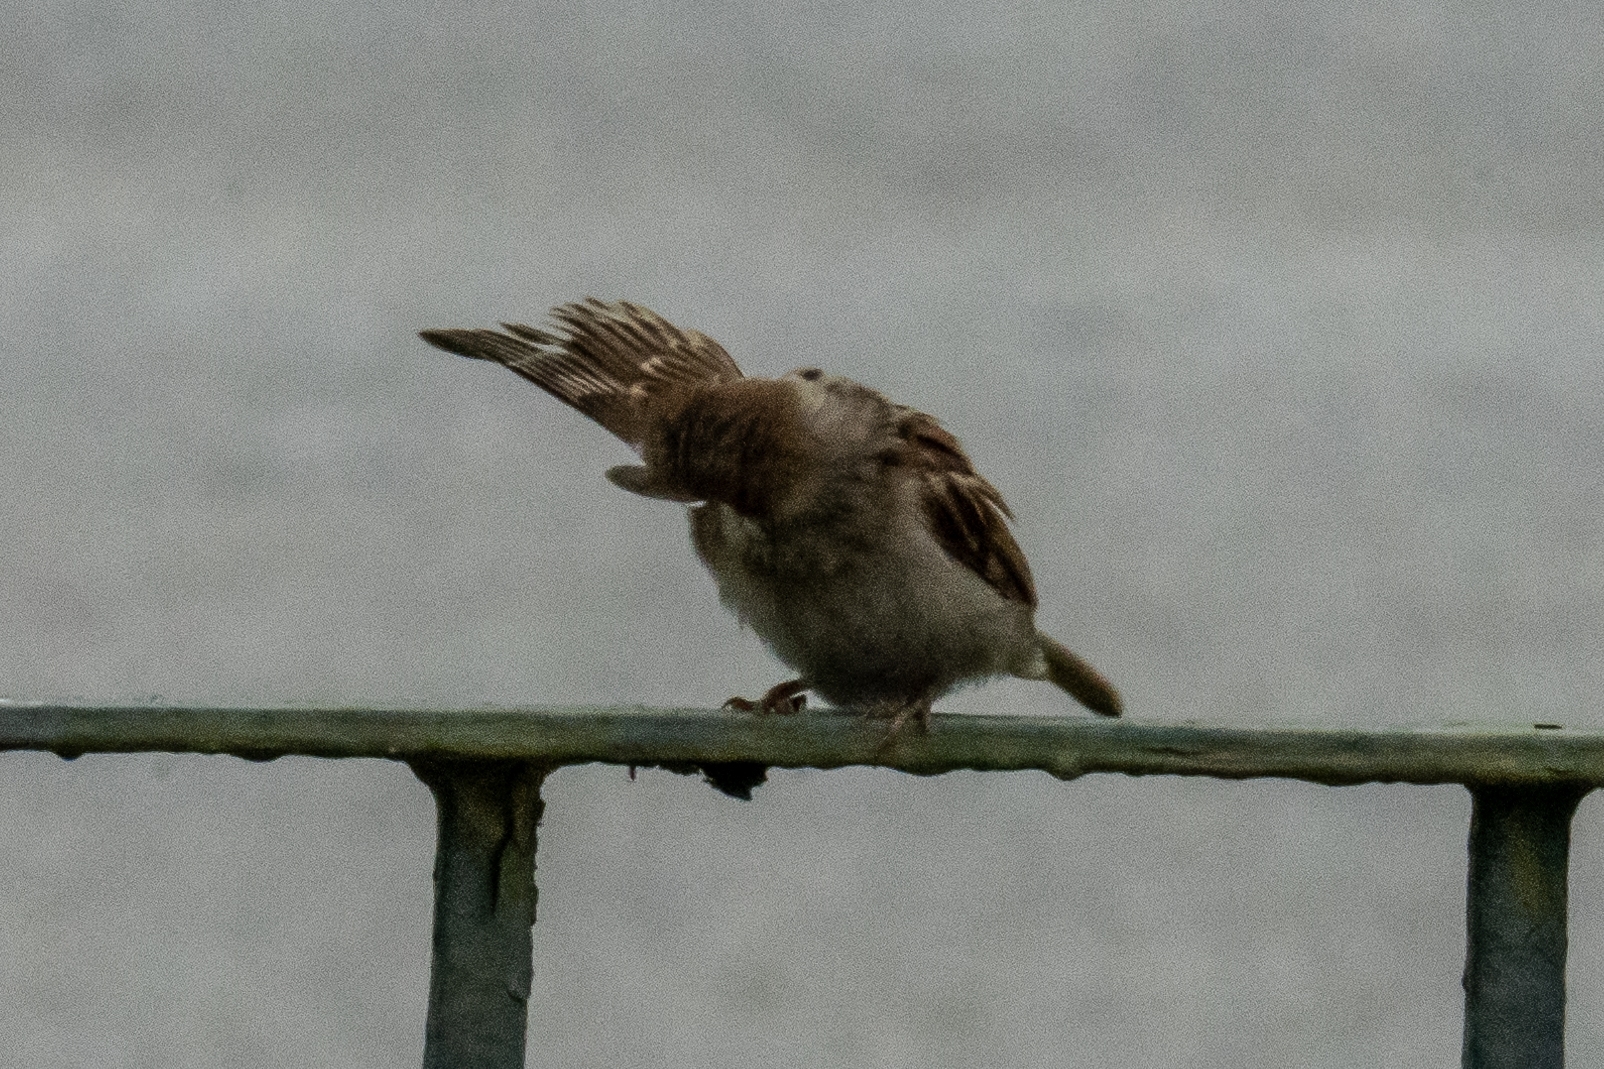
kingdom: Animalia
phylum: Chordata
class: Aves
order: Passeriformes
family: Passeridae
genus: Passer
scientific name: Passer montanus
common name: Eurasian tree sparrow
